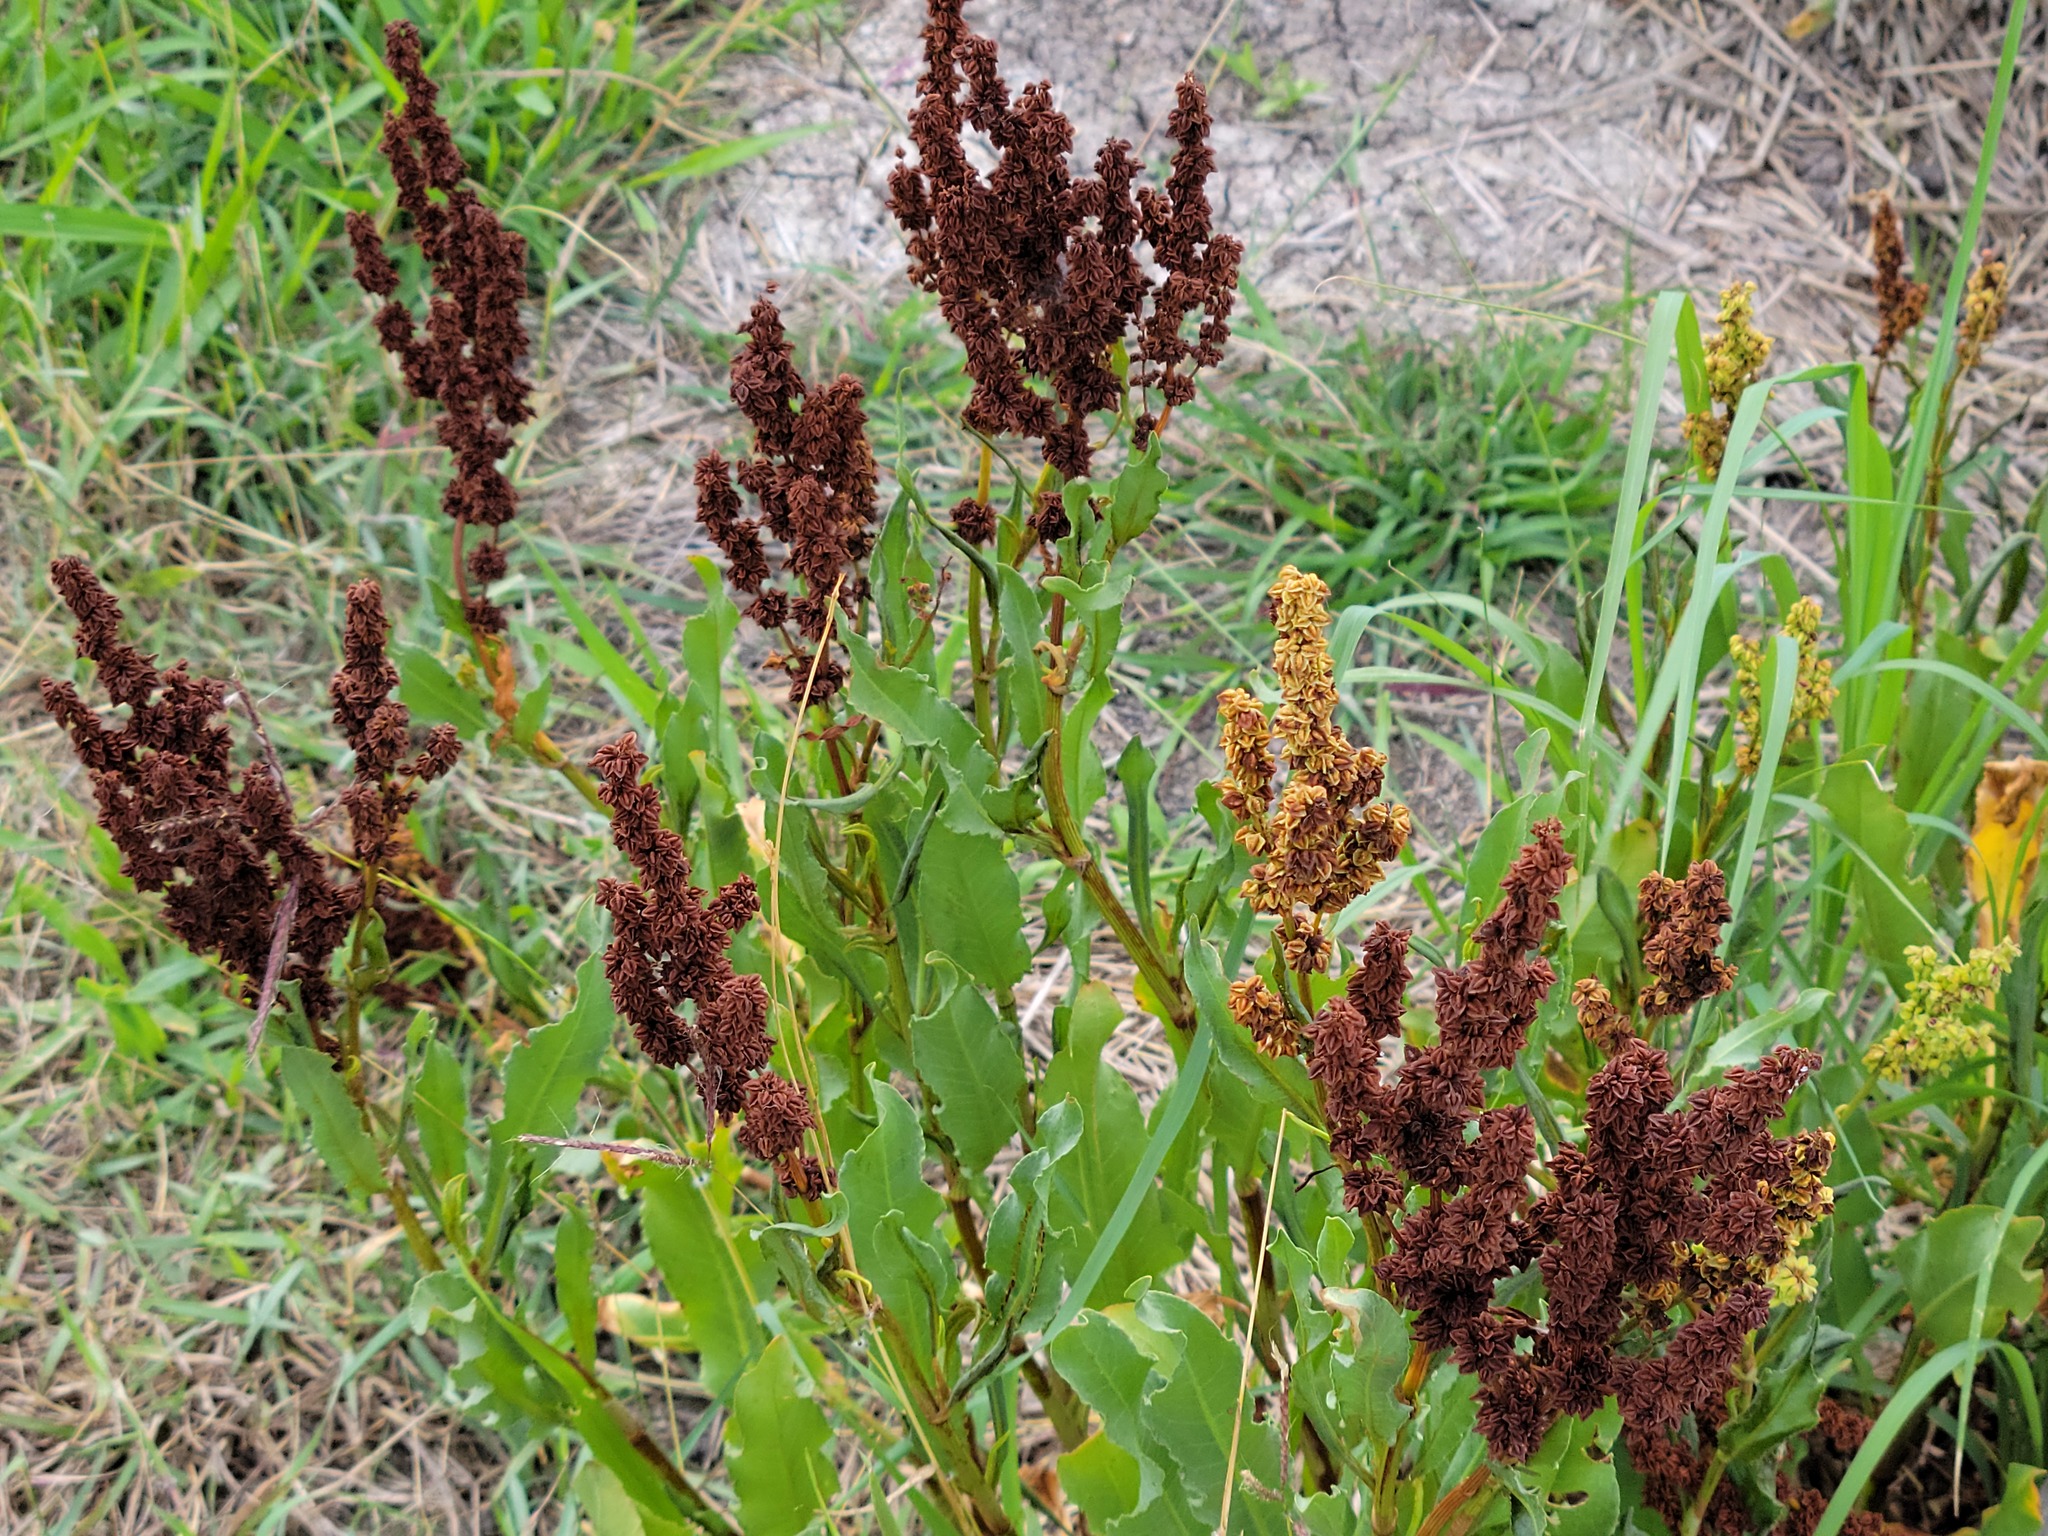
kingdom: Plantae
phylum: Tracheophyta
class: Magnoliopsida
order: Caryophyllales
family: Polygonaceae
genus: Rumex
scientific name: Rumex crispus
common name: Curled dock
